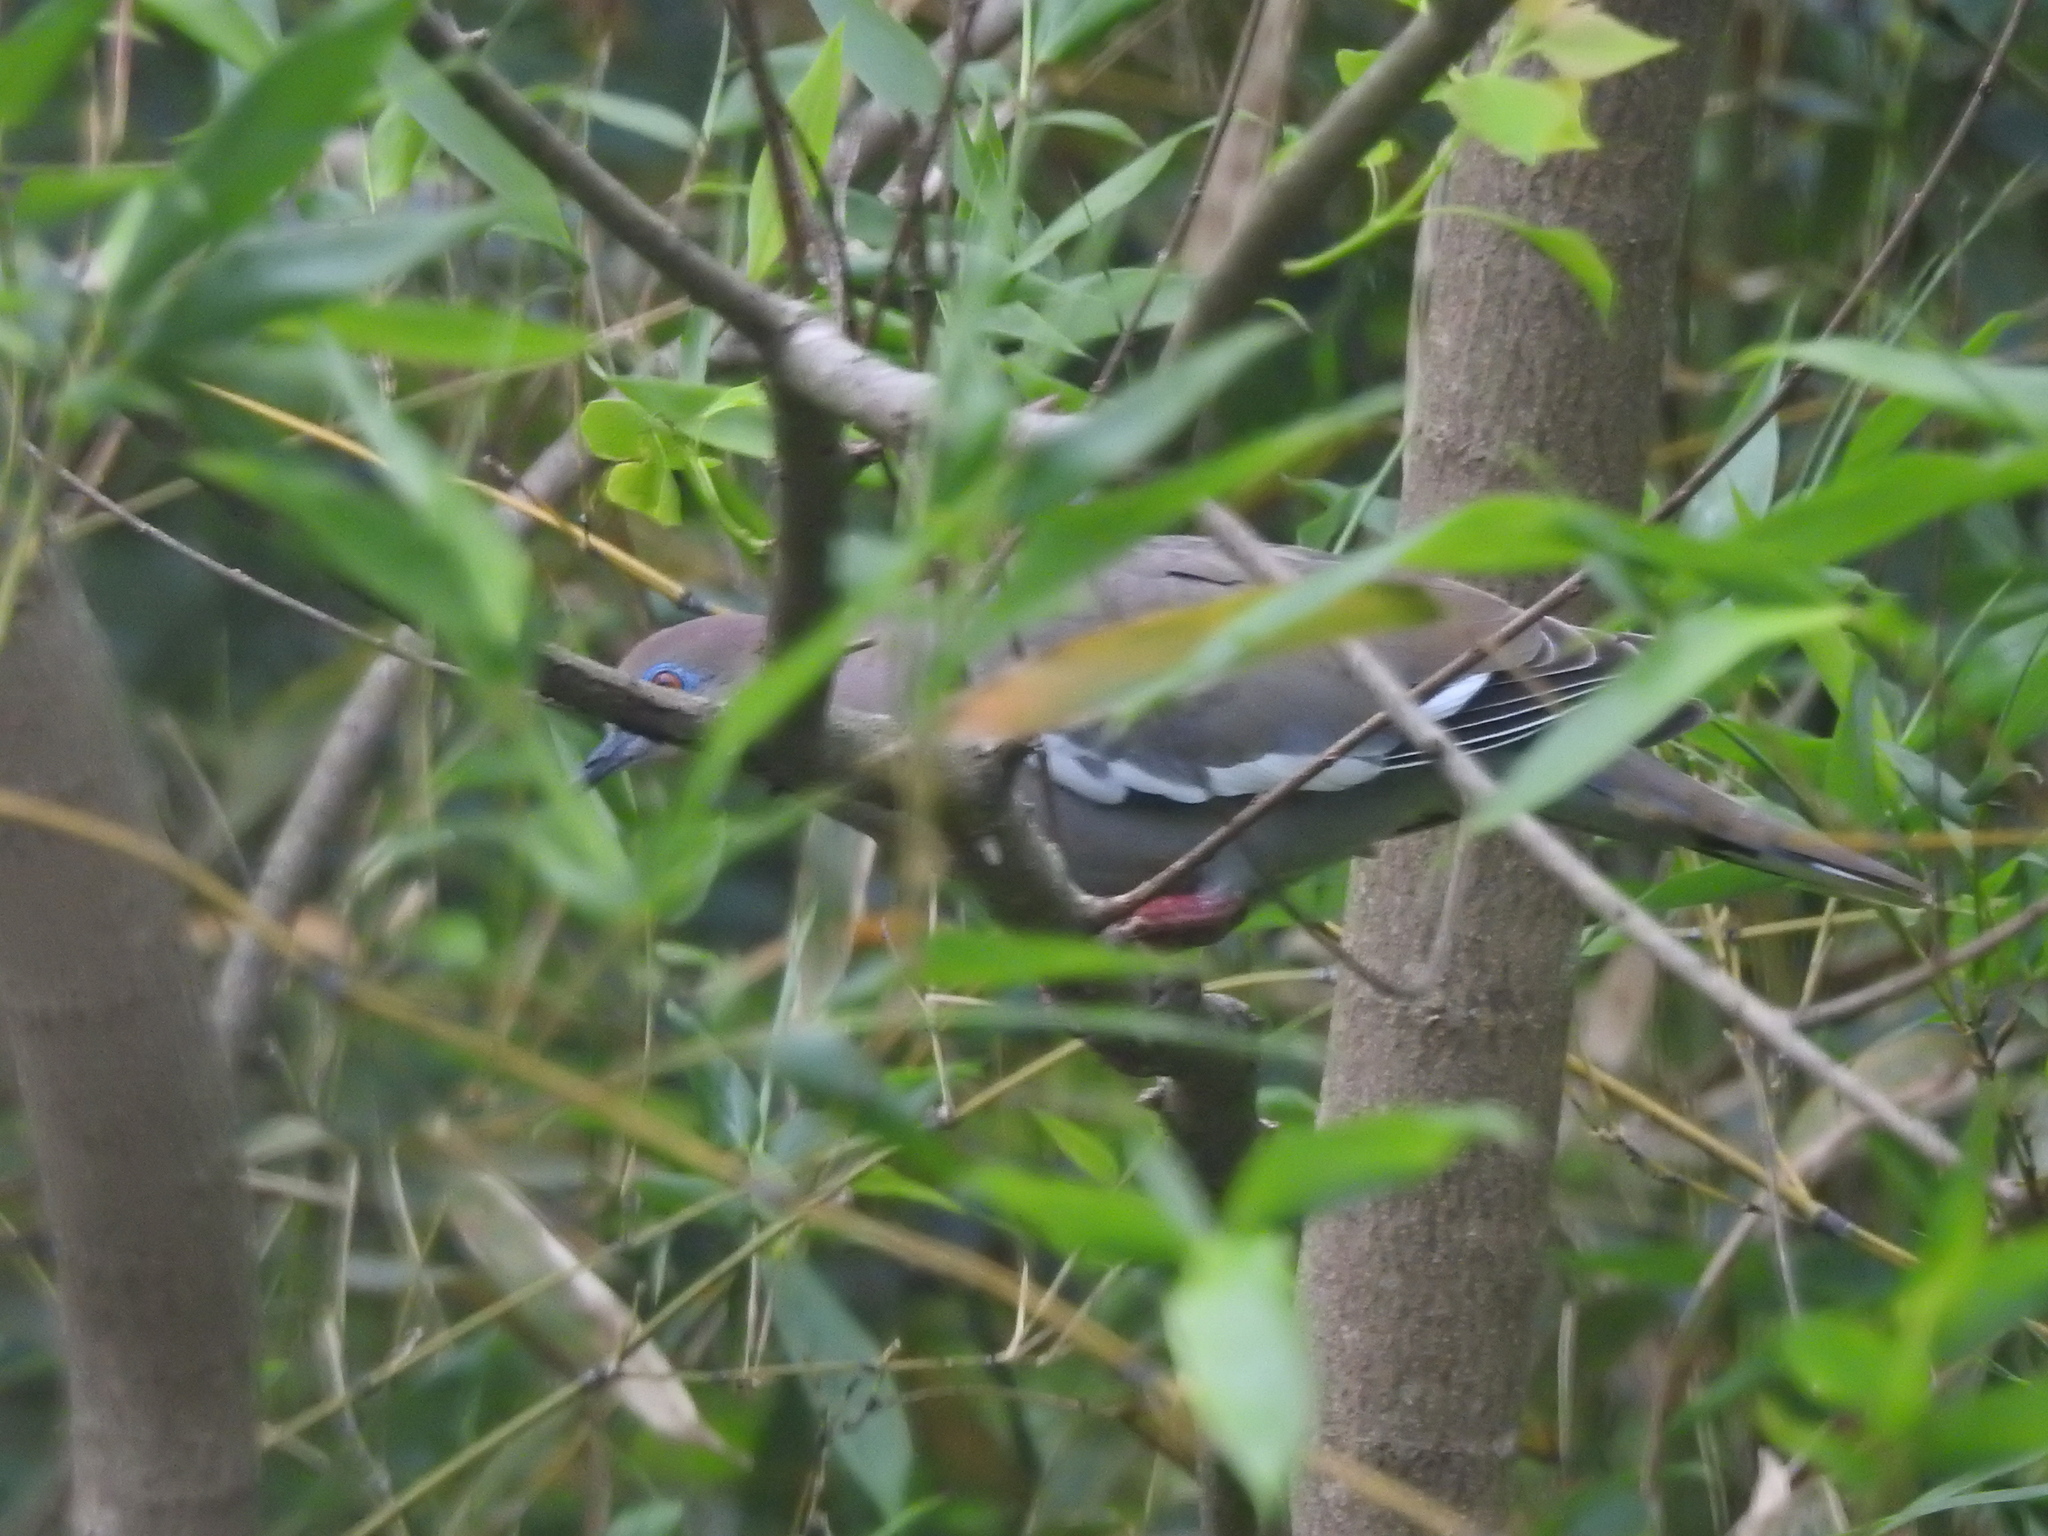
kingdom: Animalia
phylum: Chordata
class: Aves
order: Columbiformes
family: Columbidae
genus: Zenaida
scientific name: Zenaida asiatica
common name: White-winged dove
